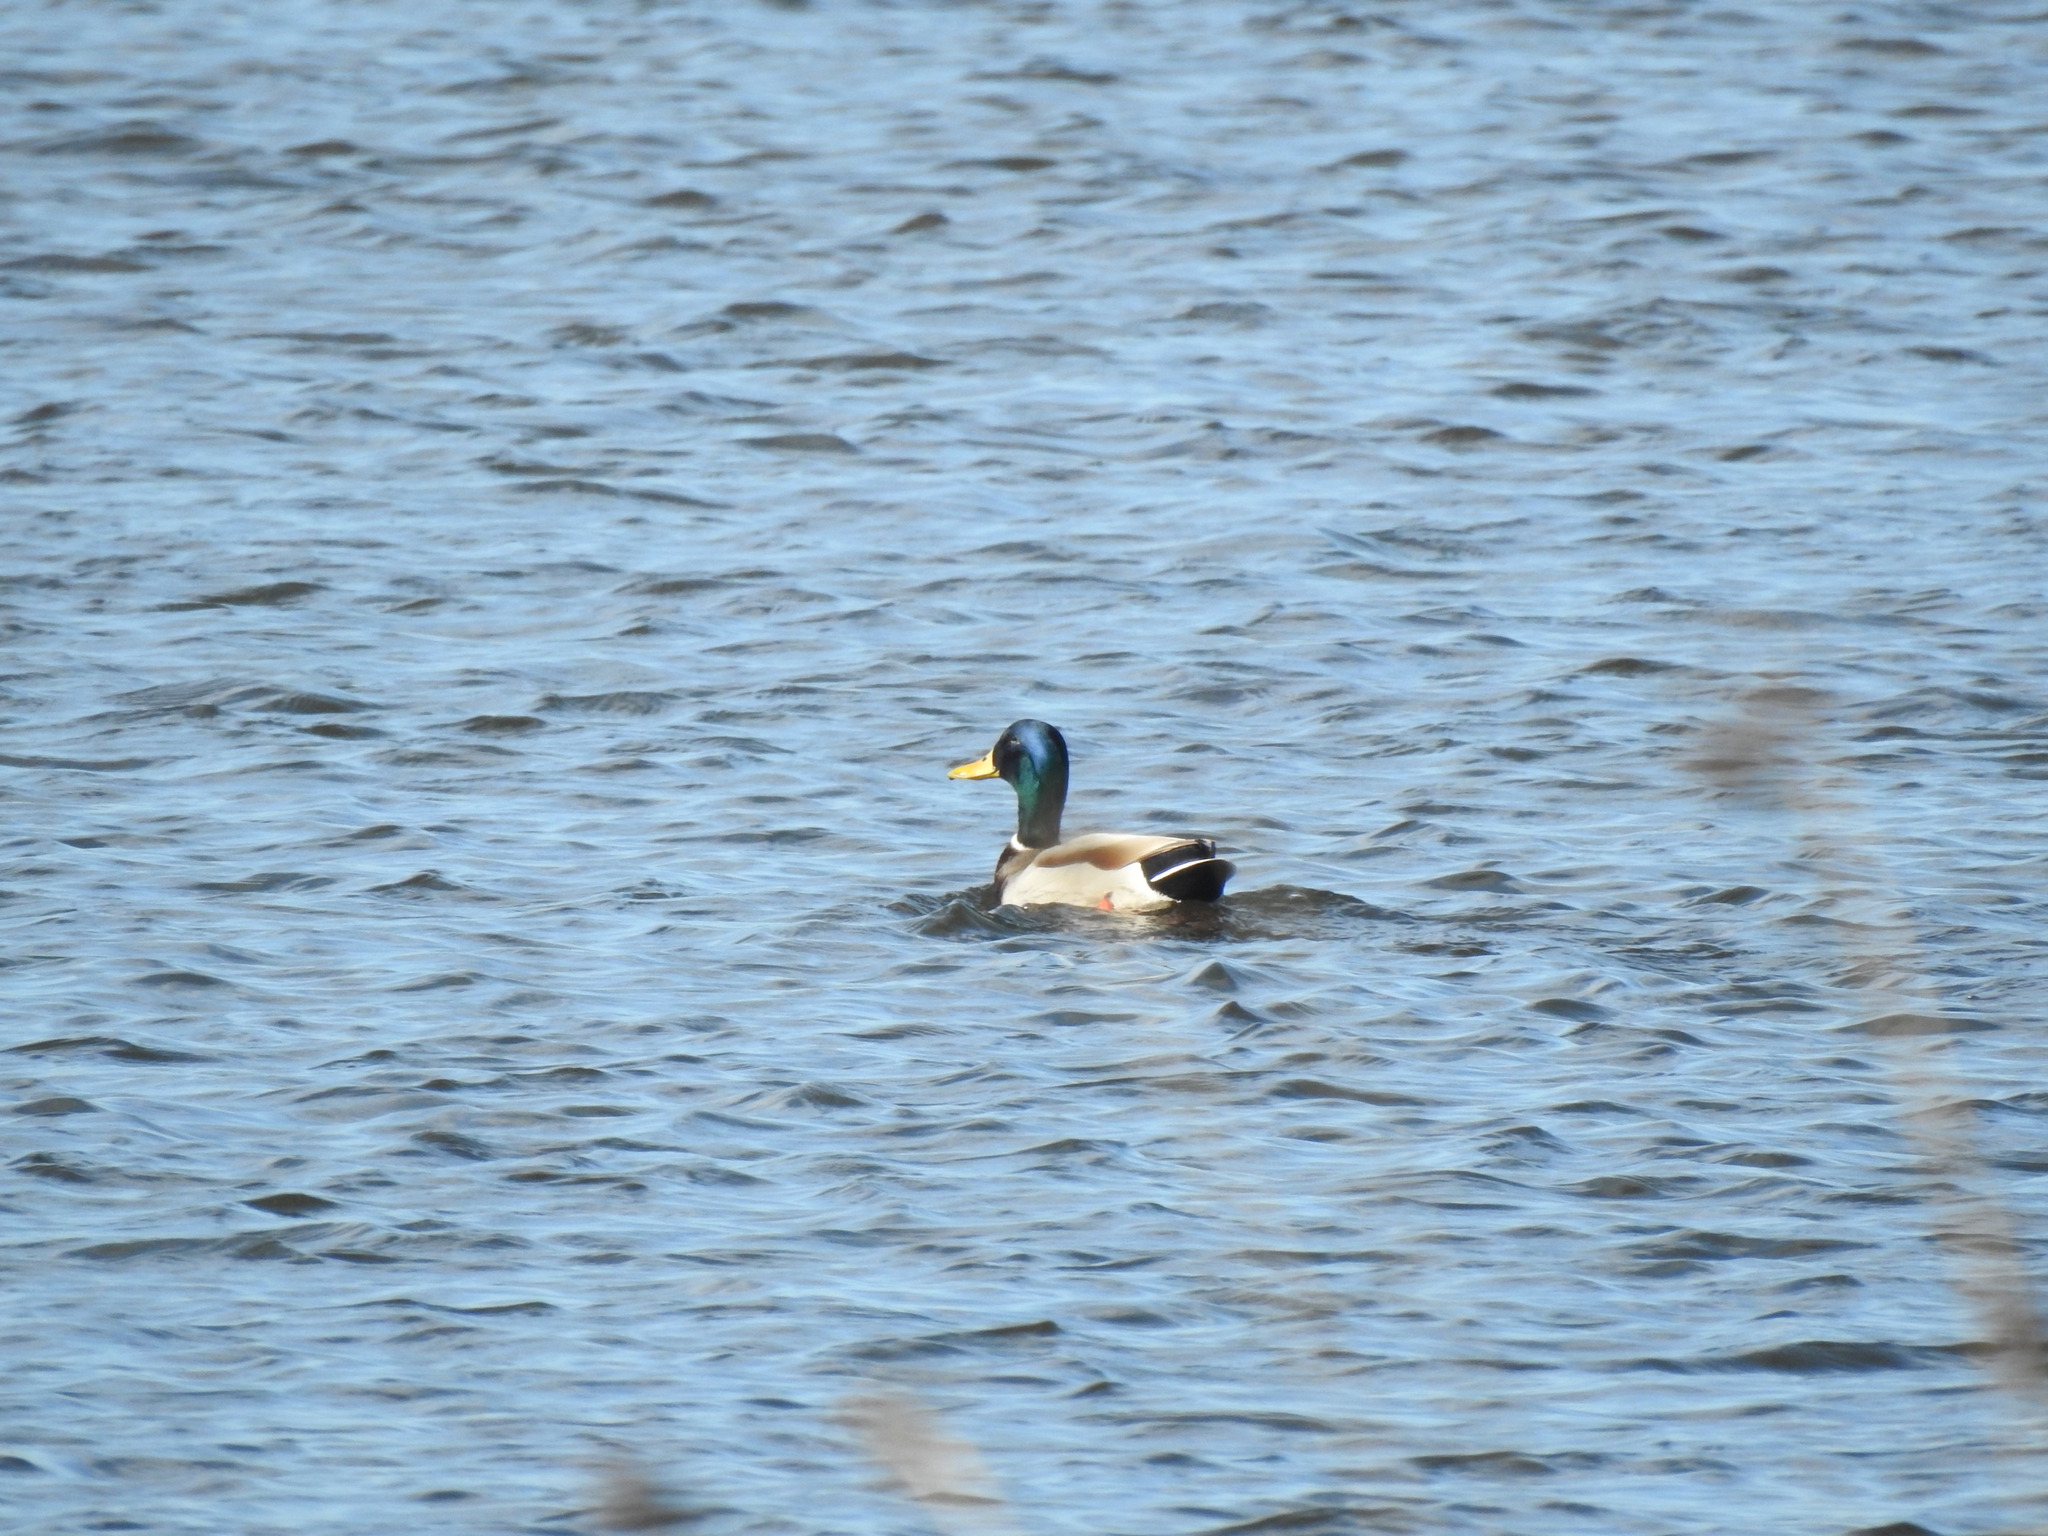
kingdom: Animalia
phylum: Chordata
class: Aves
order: Anseriformes
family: Anatidae
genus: Anas
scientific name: Anas platyrhynchos
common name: Mallard
